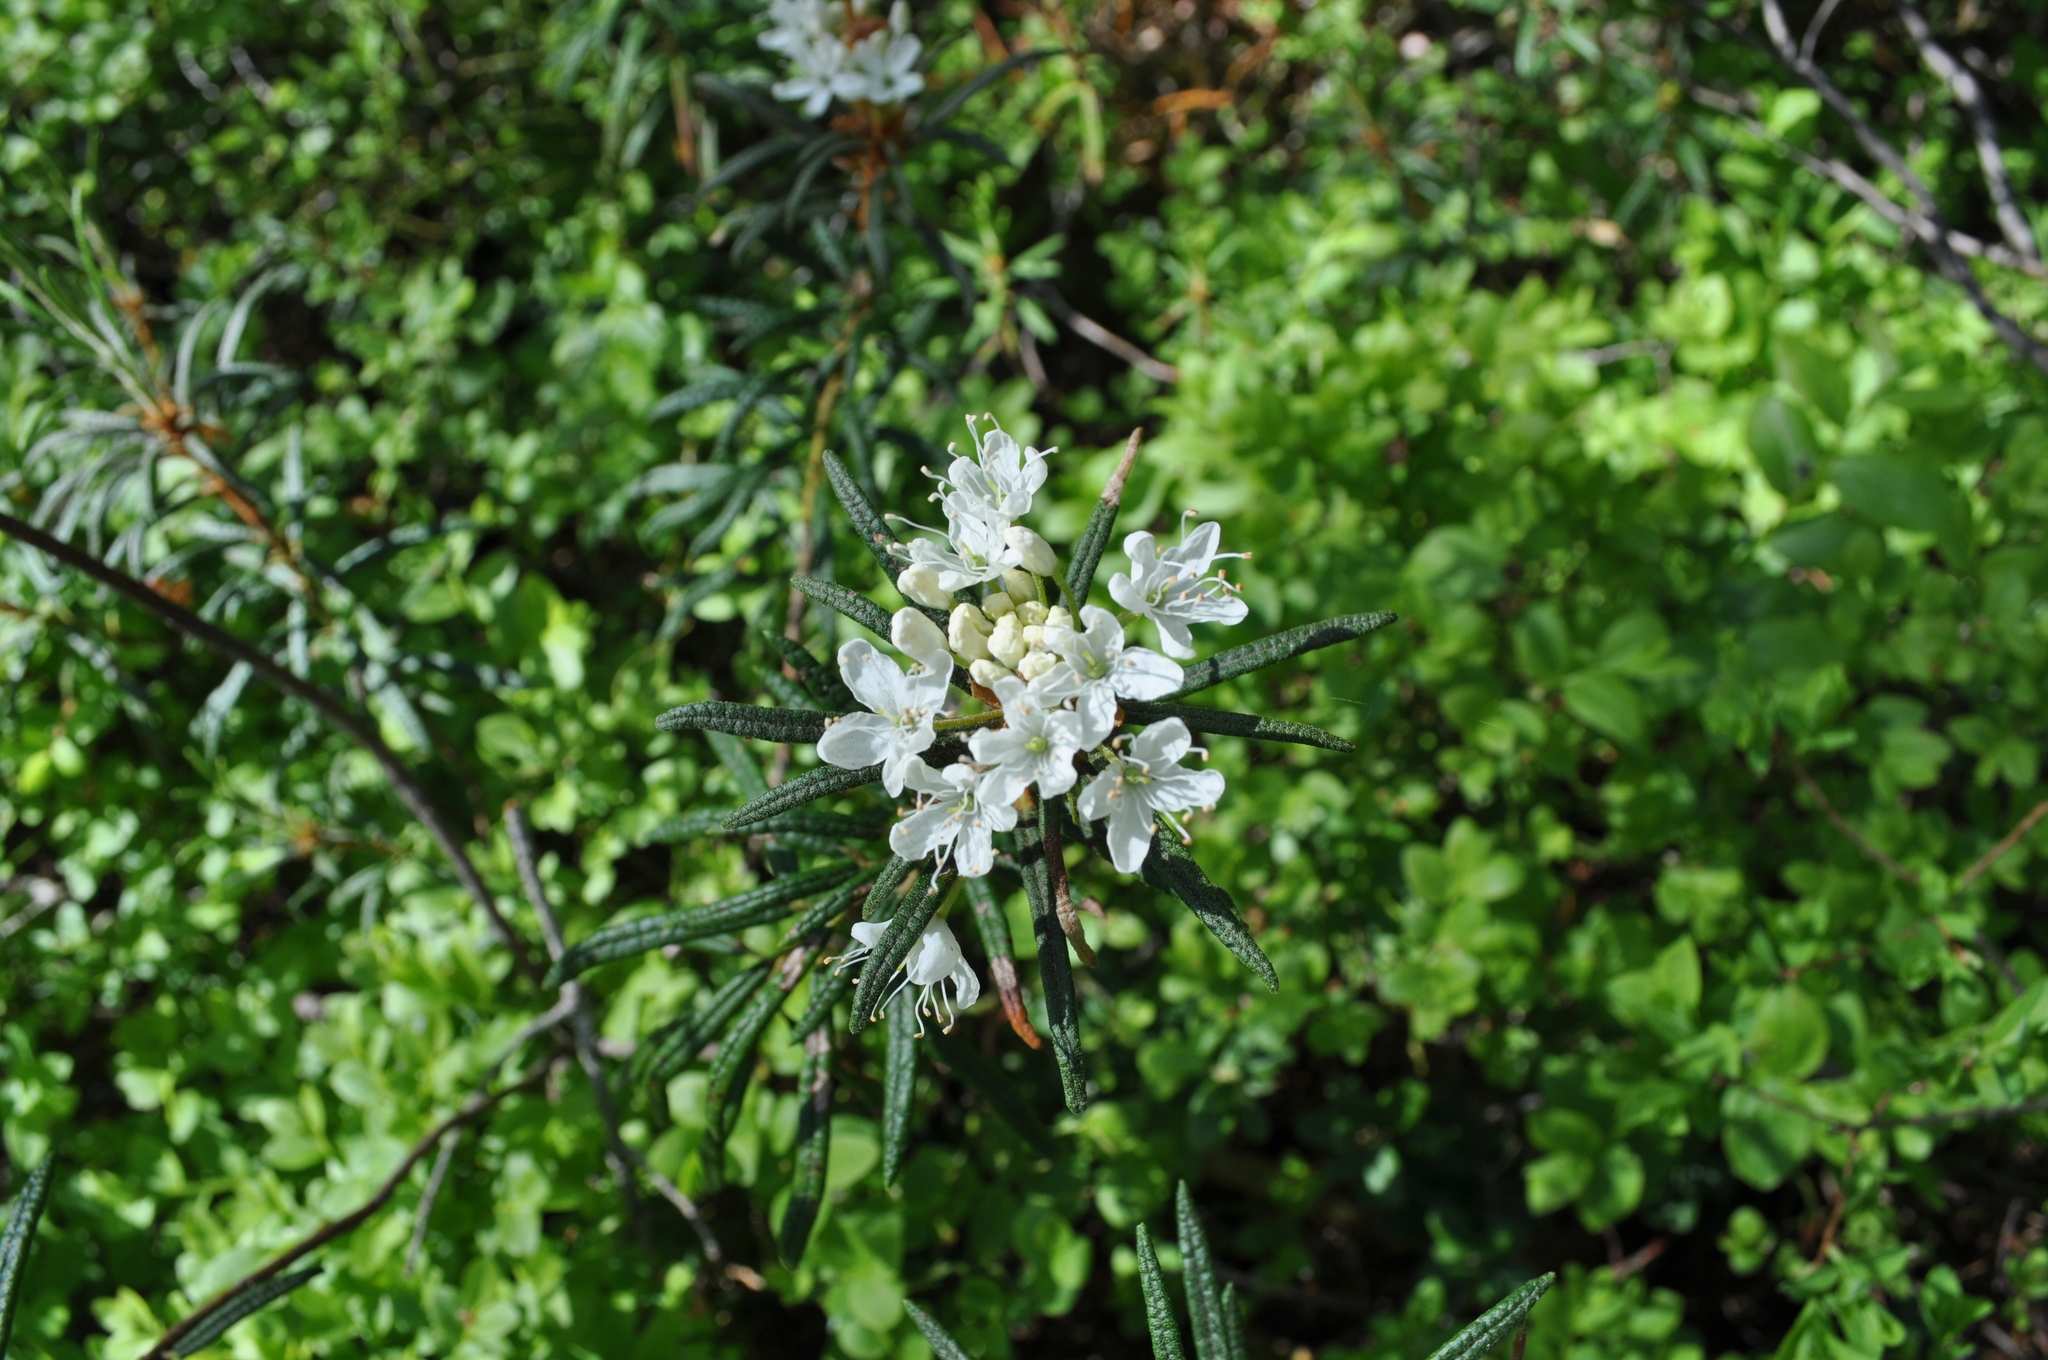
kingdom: Plantae
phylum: Tracheophyta
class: Magnoliopsida
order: Ericales
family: Ericaceae
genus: Rhododendron
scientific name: Rhododendron tomentosum
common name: Marsh labrador tea
